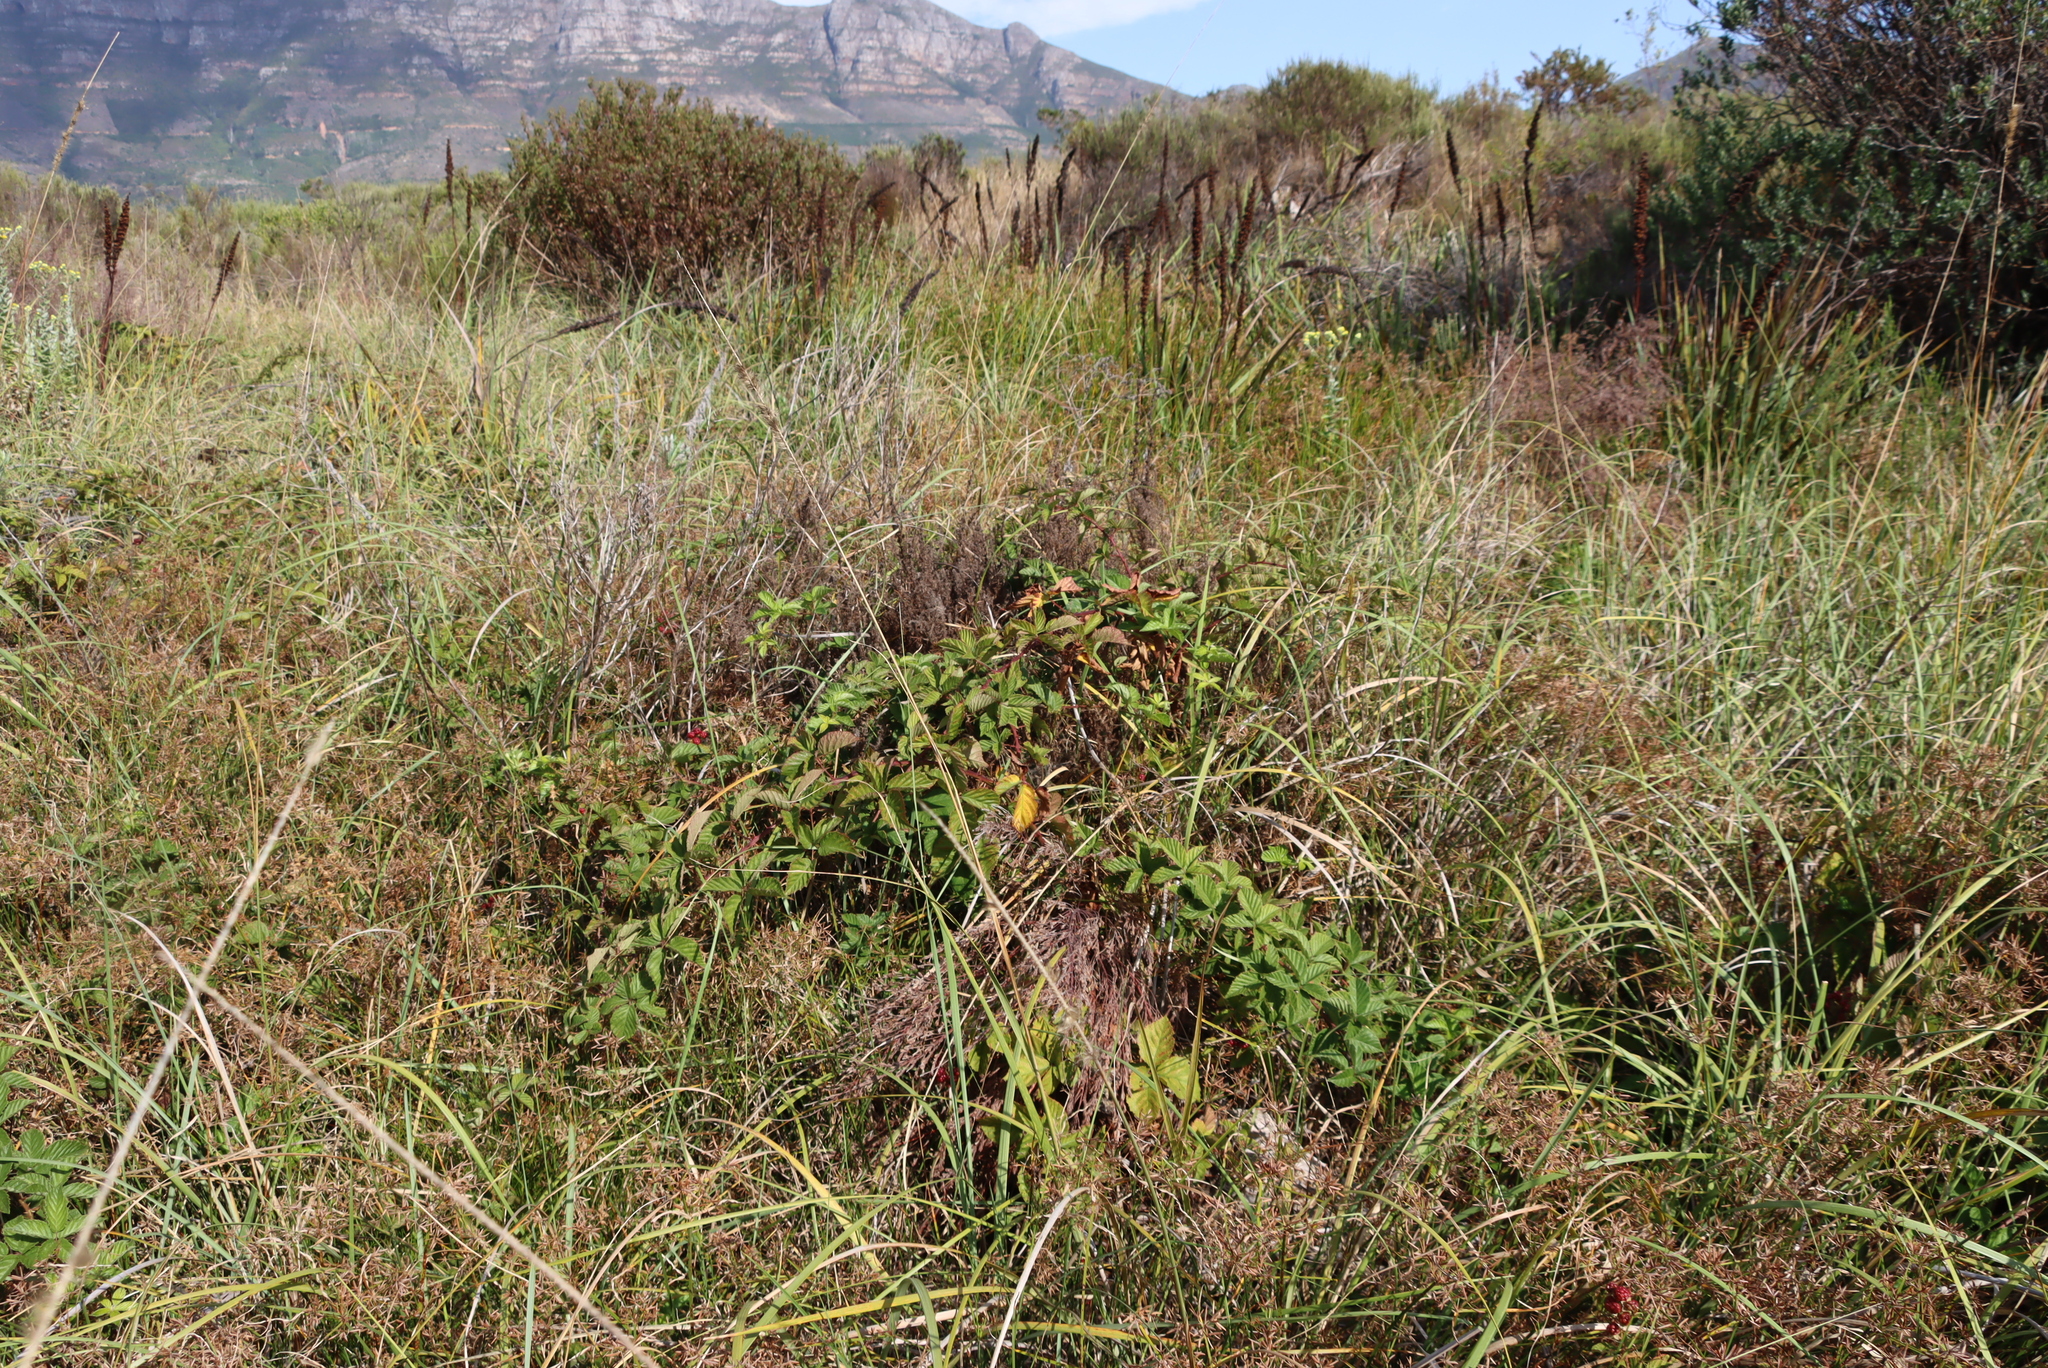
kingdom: Plantae
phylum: Tracheophyta
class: Magnoliopsida
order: Rosales
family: Rosaceae
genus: Rubus
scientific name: Rubus affinis
